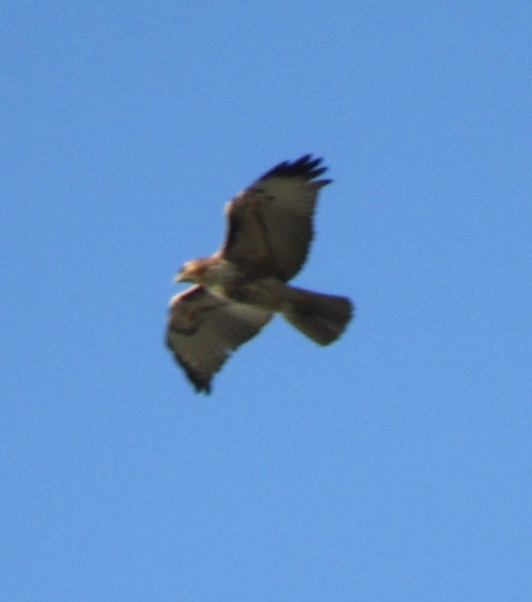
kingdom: Animalia
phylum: Chordata
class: Aves
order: Accipitriformes
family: Accipitridae
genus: Buteo
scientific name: Buteo jamaicensis
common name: Red-tailed hawk
